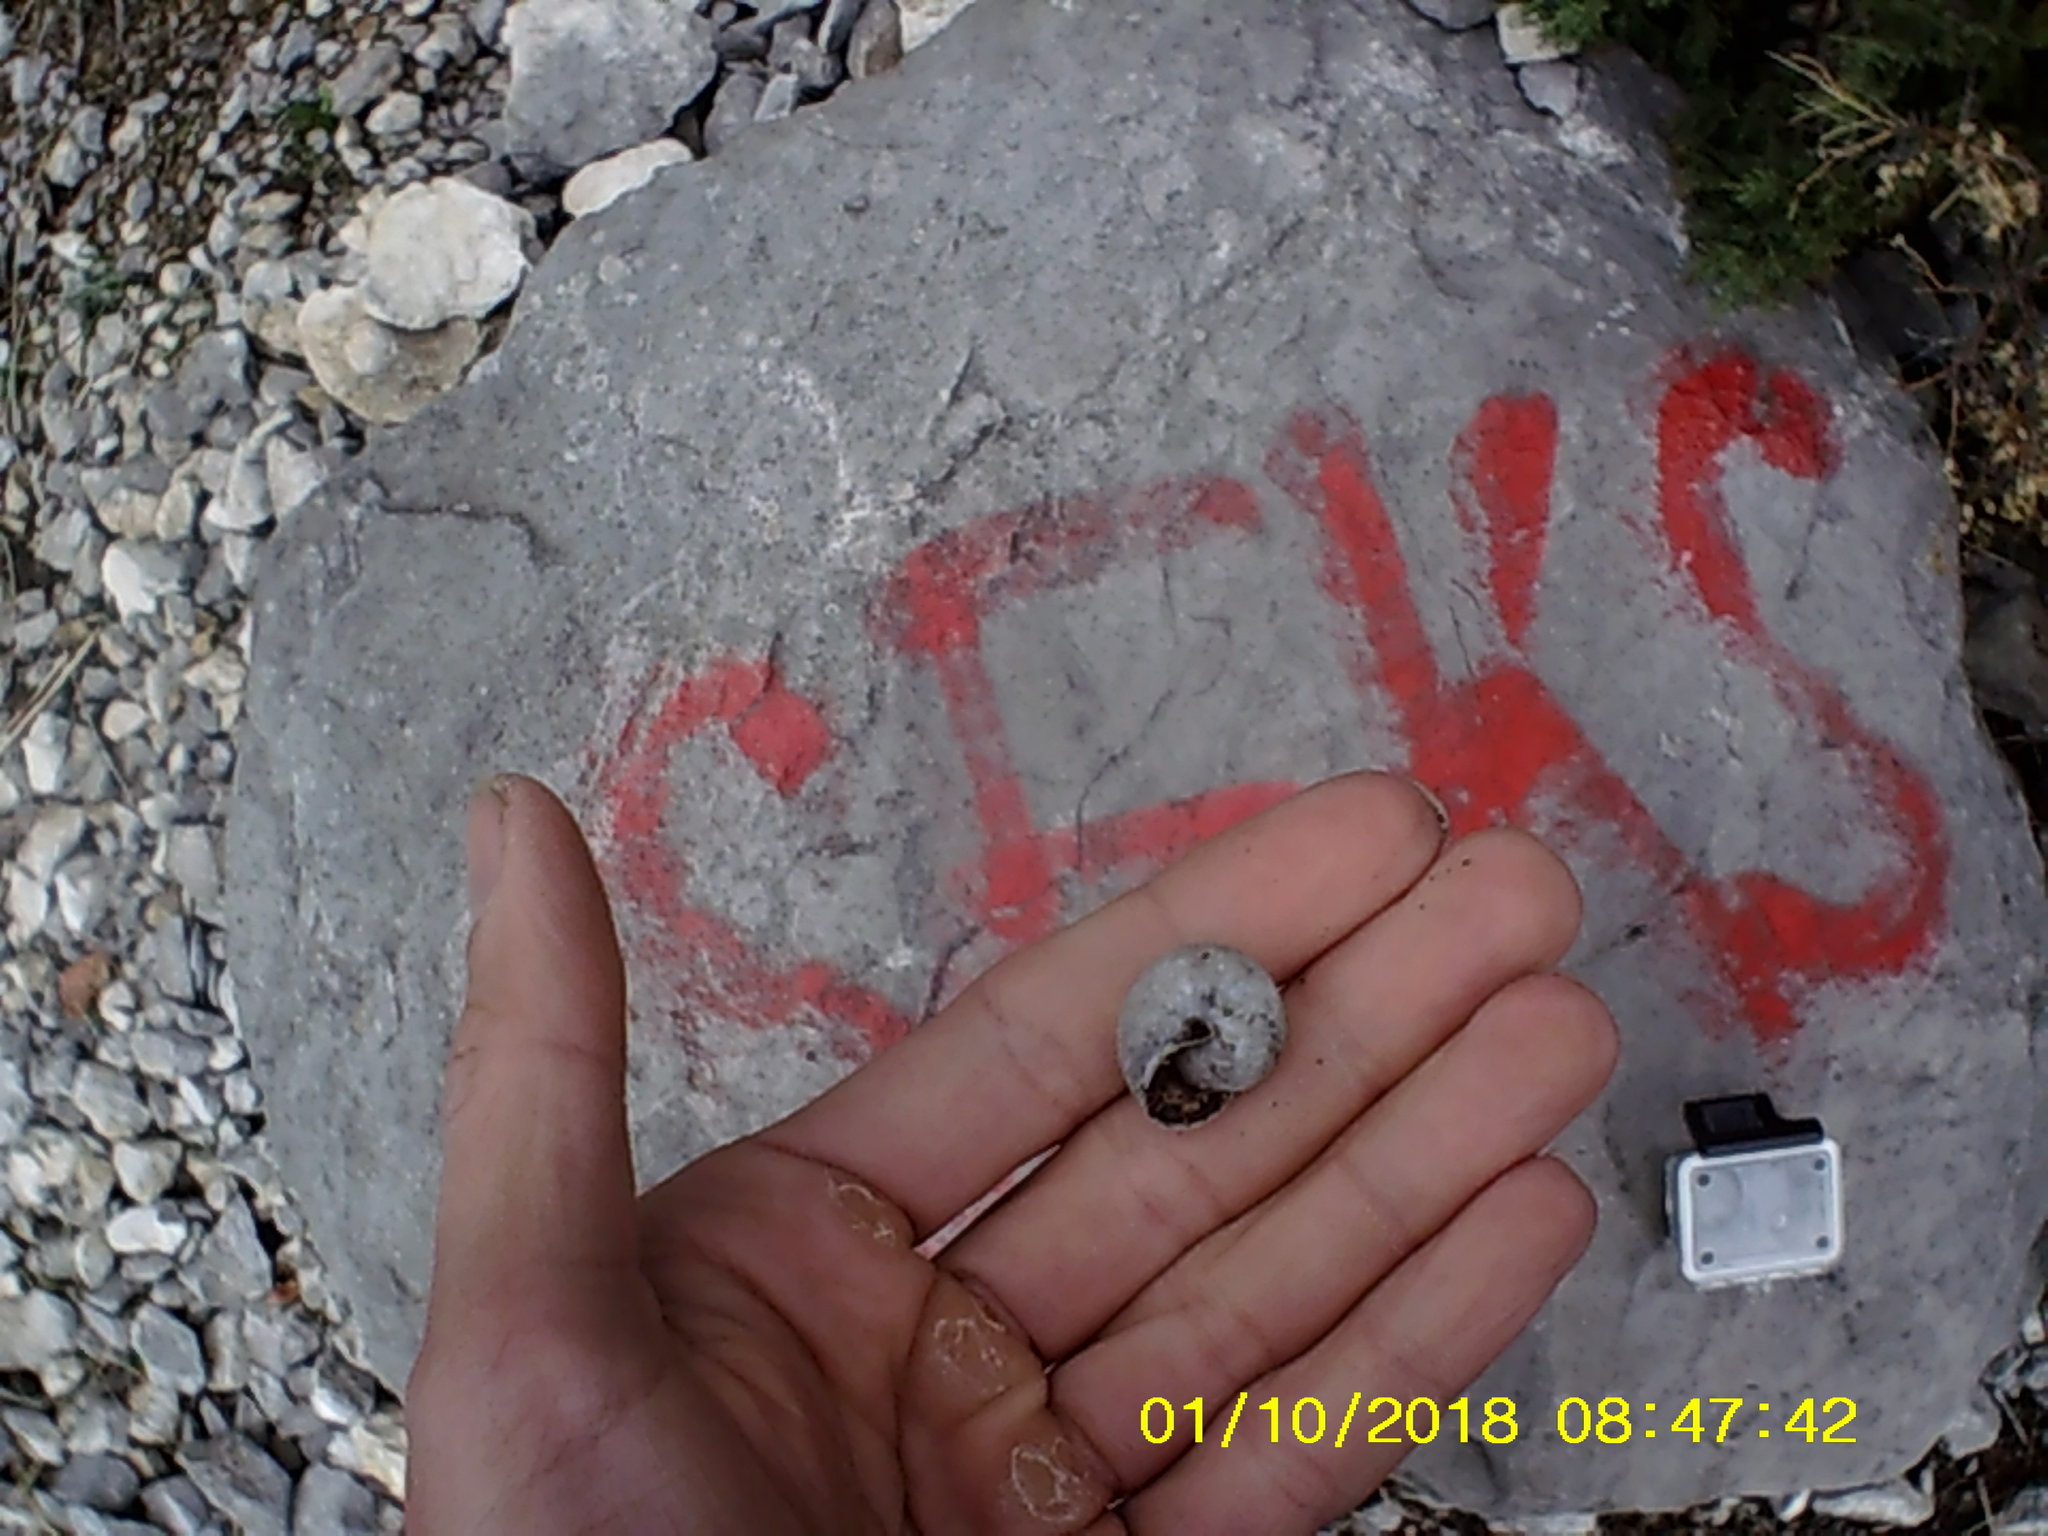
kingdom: Animalia
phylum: Mollusca
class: Gastropoda
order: Stylommatophora
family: Hygromiidae
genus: Monacha
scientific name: Monacha fruticola
